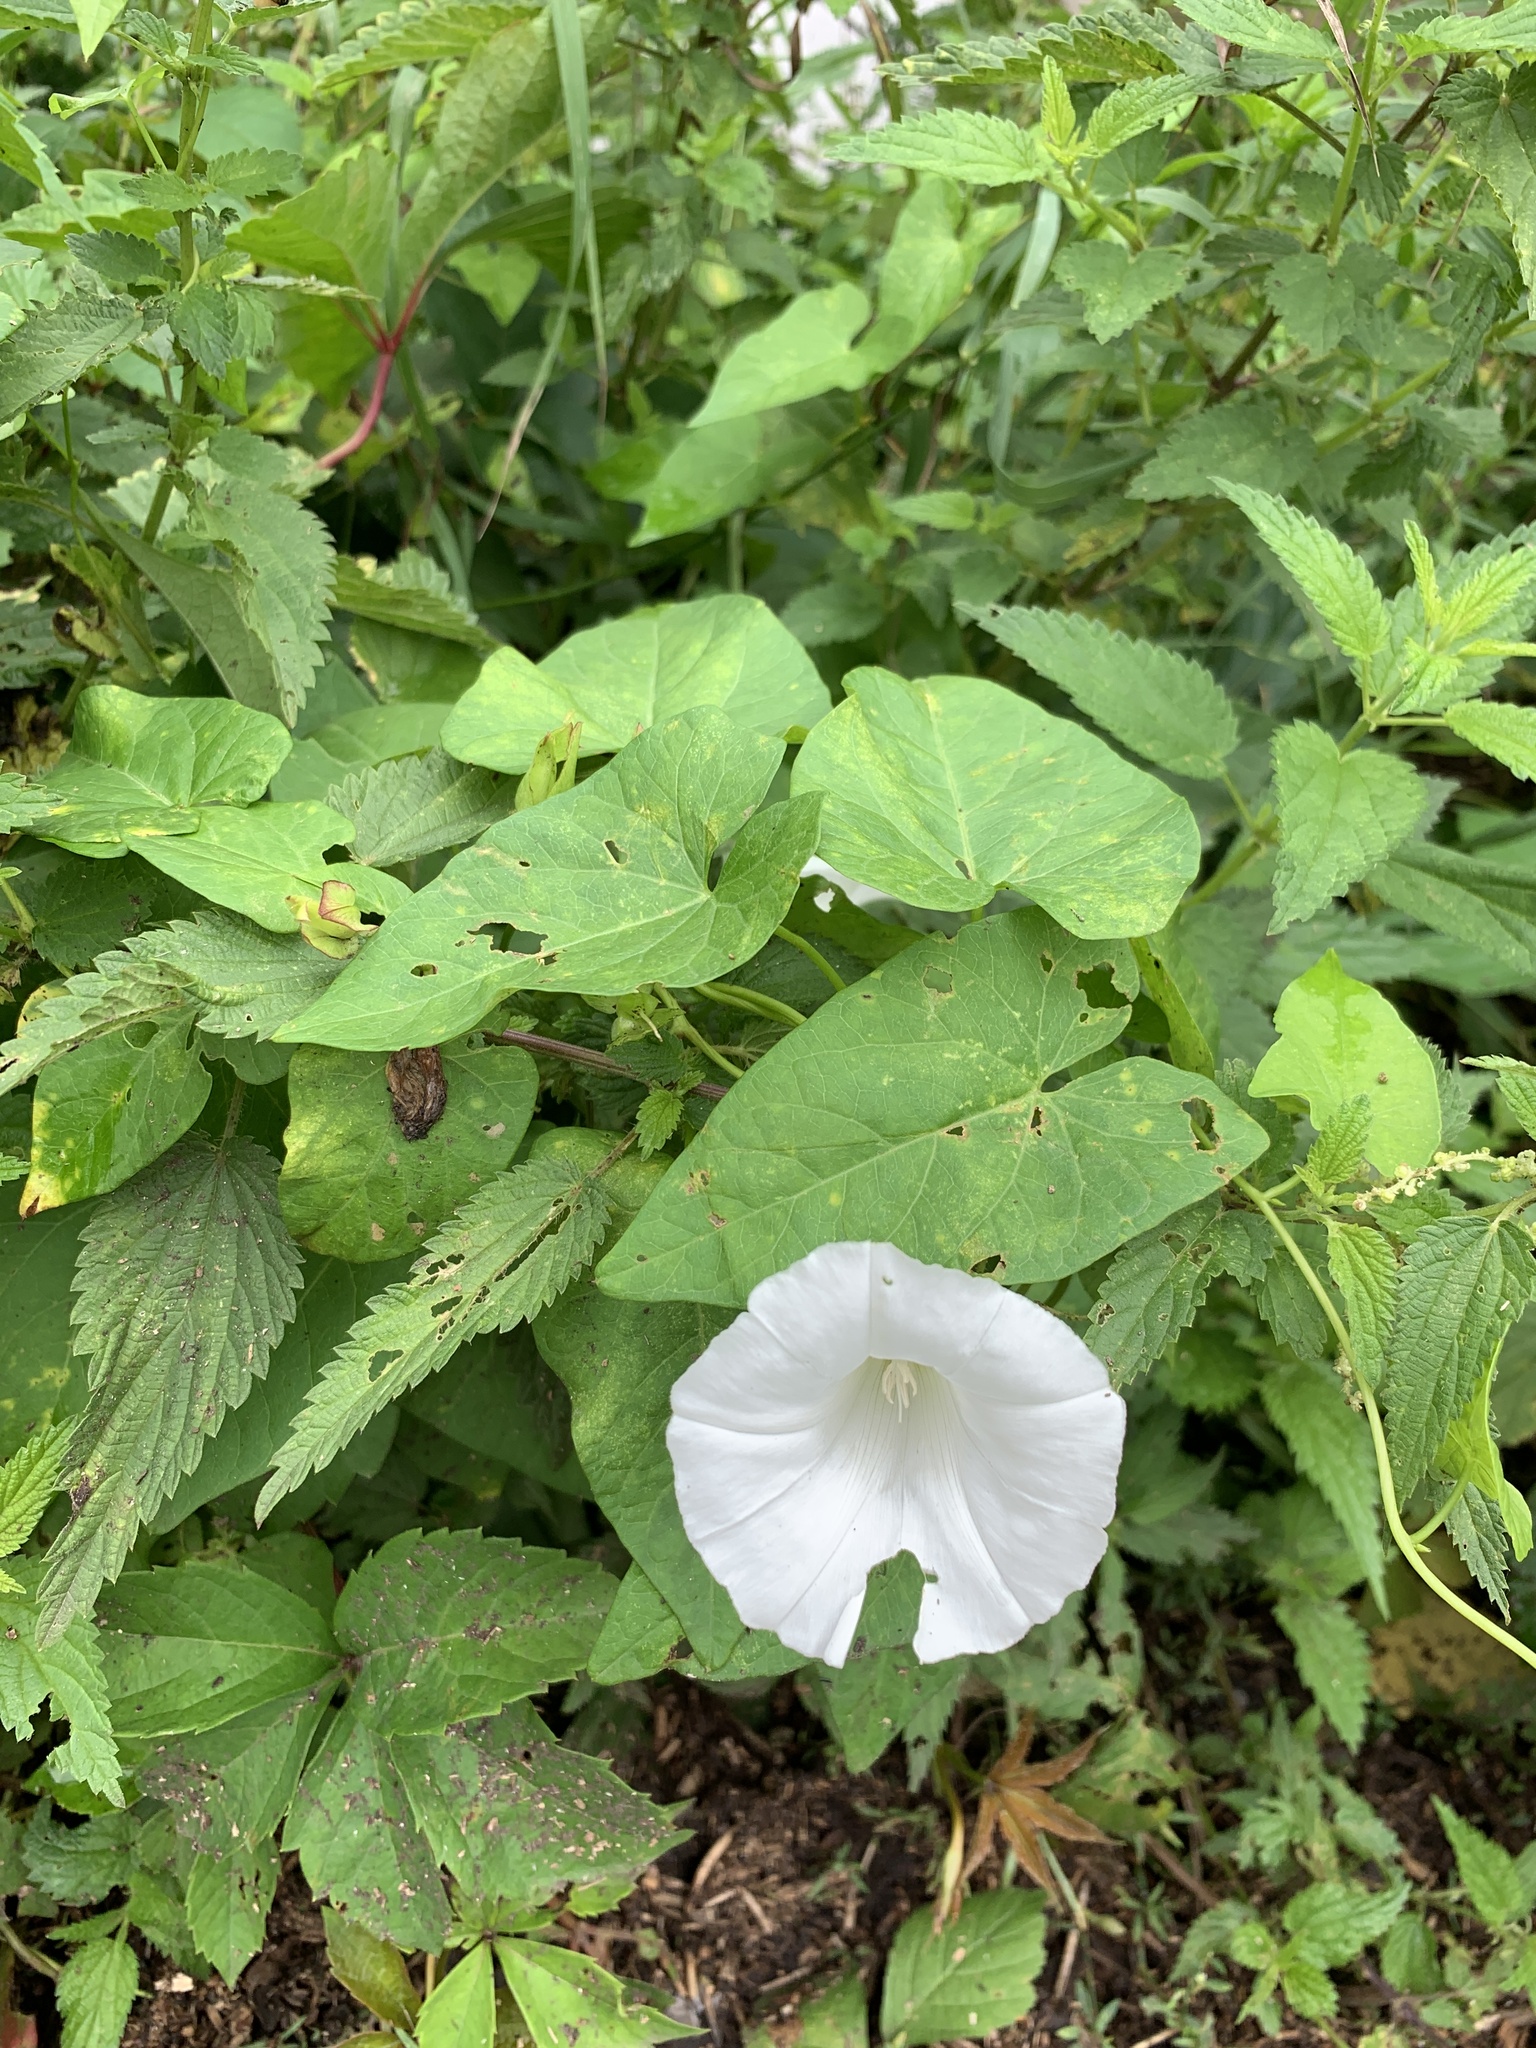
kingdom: Plantae
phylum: Tracheophyta
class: Magnoliopsida
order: Solanales
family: Convolvulaceae
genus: Calystegia
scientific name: Calystegia sepium
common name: Hedge bindweed
